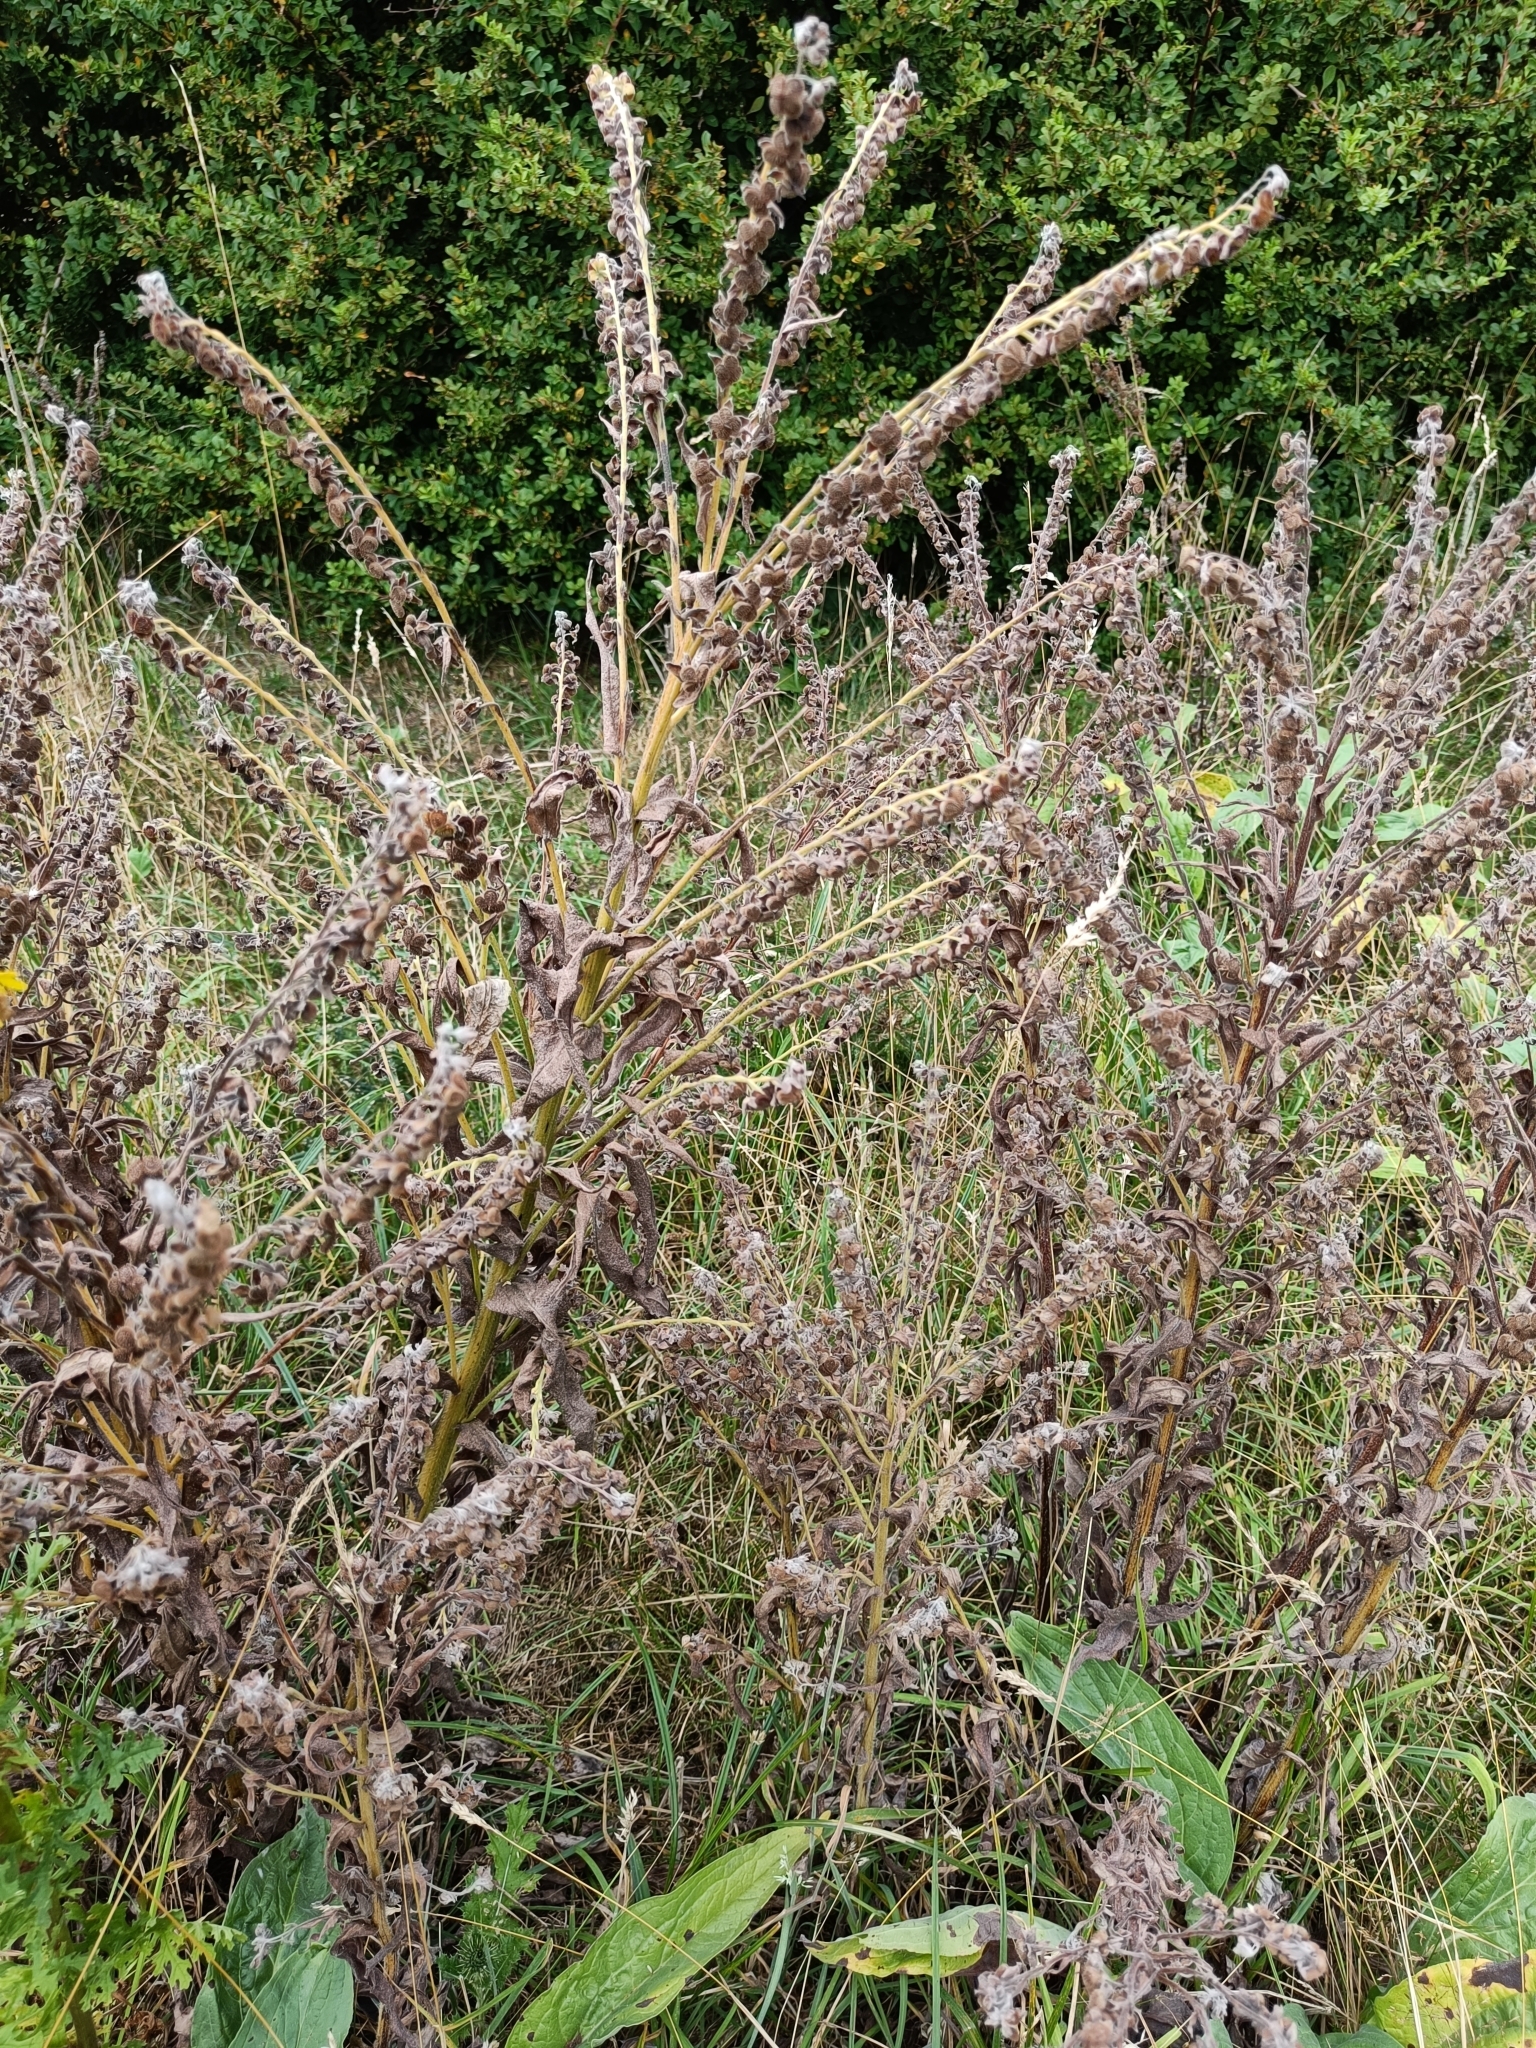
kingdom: Plantae
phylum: Tracheophyta
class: Magnoliopsida
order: Boraginales
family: Boraginaceae
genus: Cynoglossum
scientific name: Cynoglossum officinale
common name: Hound's-tongue
